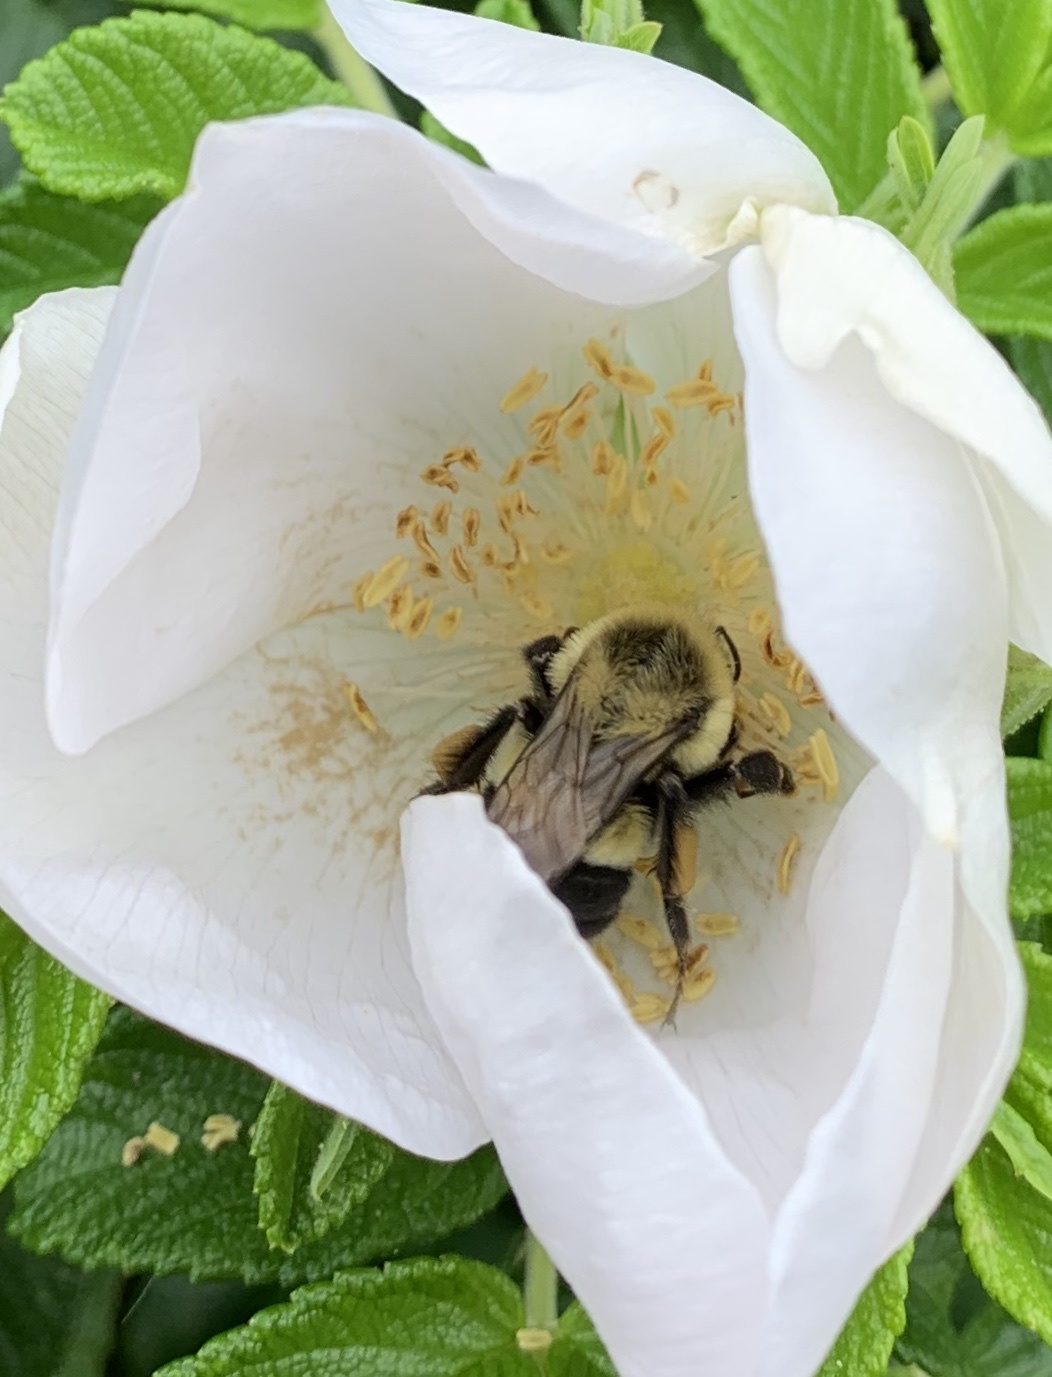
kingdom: Animalia
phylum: Arthropoda
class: Insecta
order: Hymenoptera
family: Apidae
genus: Bombus
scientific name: Bombus impatiens
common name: Common eastern bumble bee
